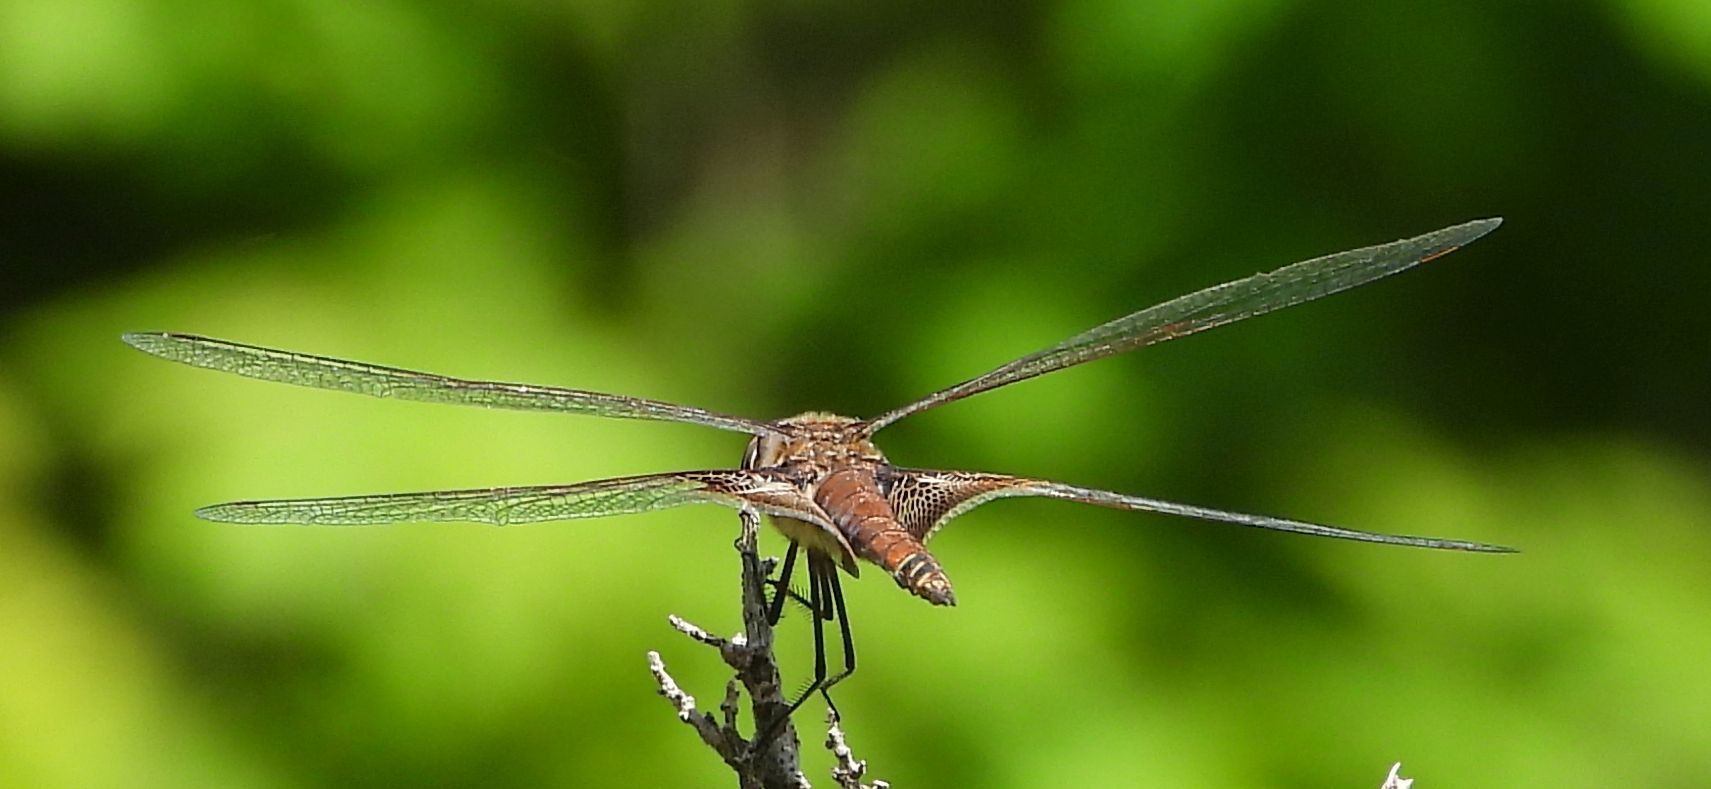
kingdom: Animalia
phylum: Arthropoda
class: Insecta
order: Odonata
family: Libellulidae
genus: Tramea
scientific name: Tramea carolina
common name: Carolina saddlebags
